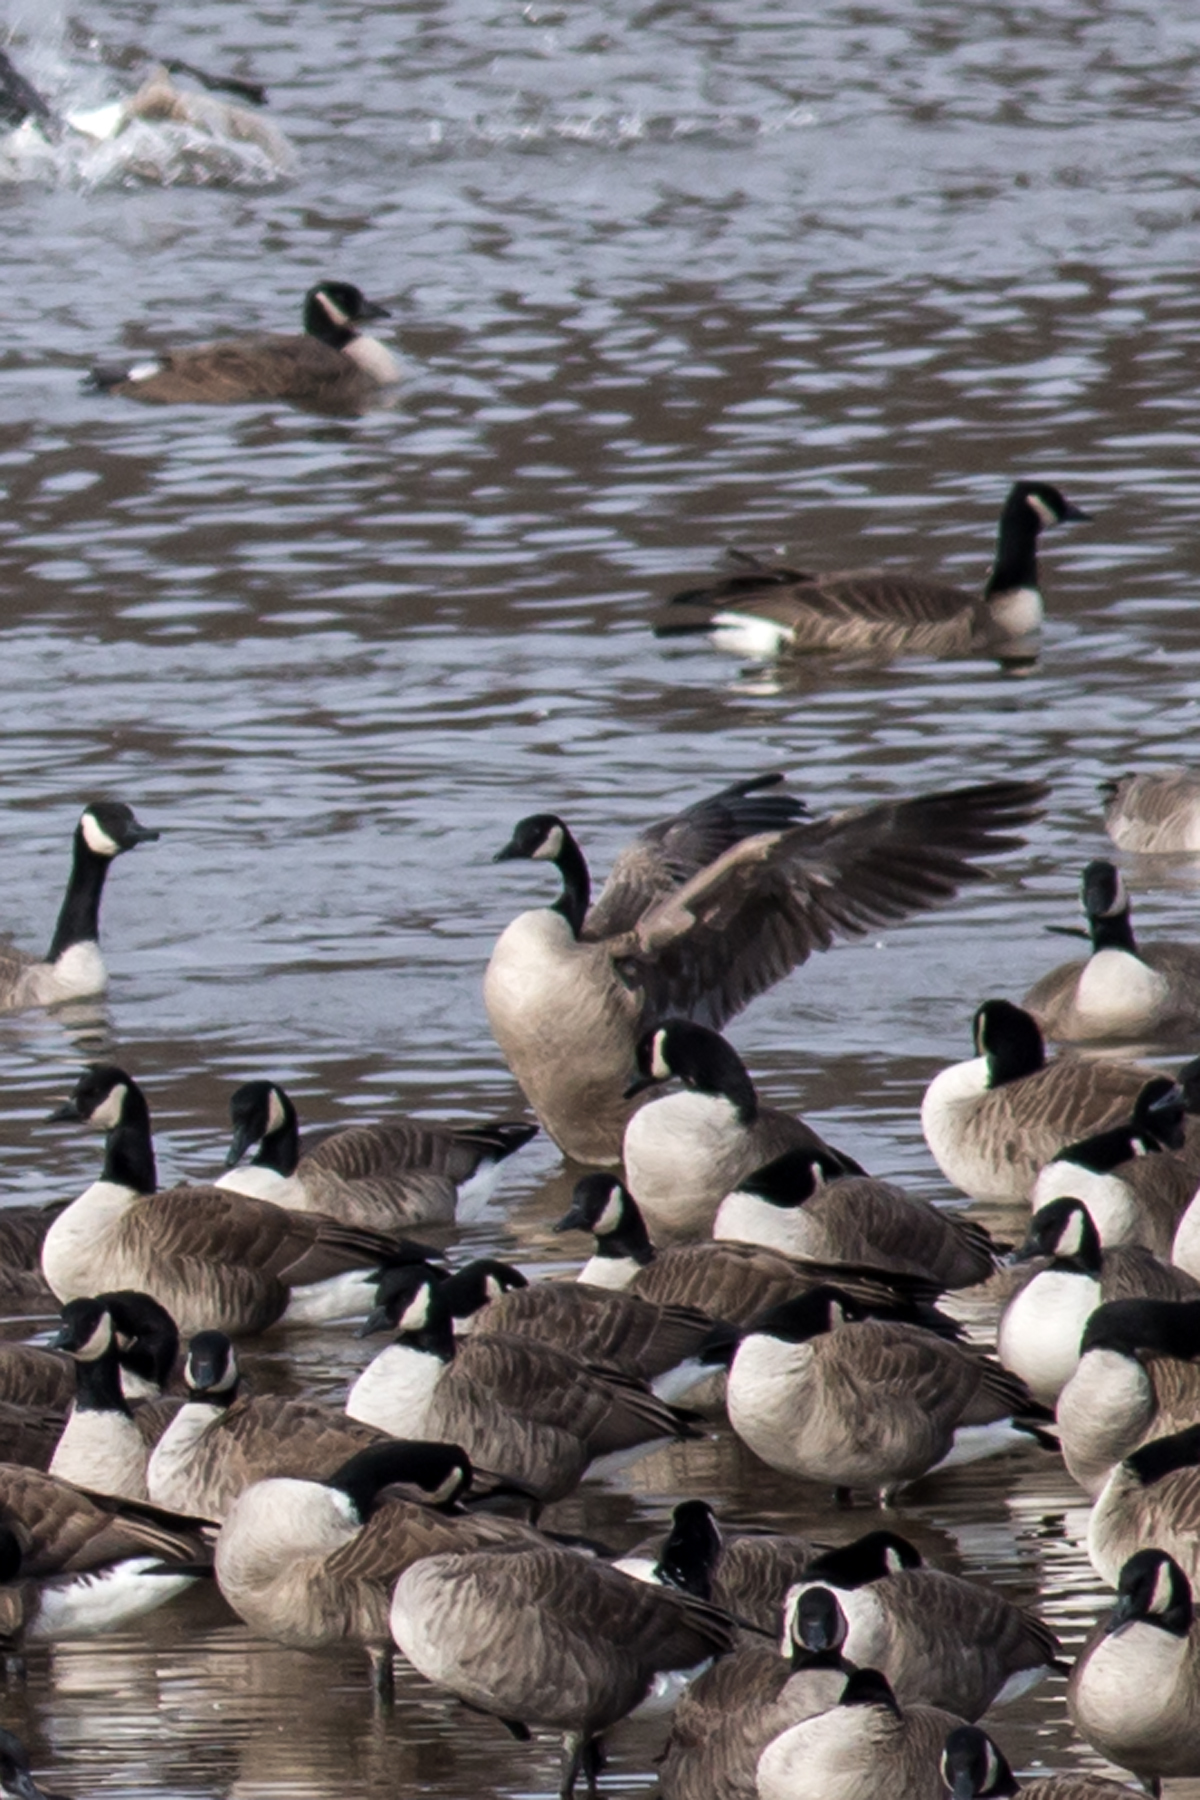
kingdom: Animalia
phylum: Chordata
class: Aves
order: Anseriformes
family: Anatidae
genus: Branta
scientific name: Branta canadensis
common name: Canada goose
